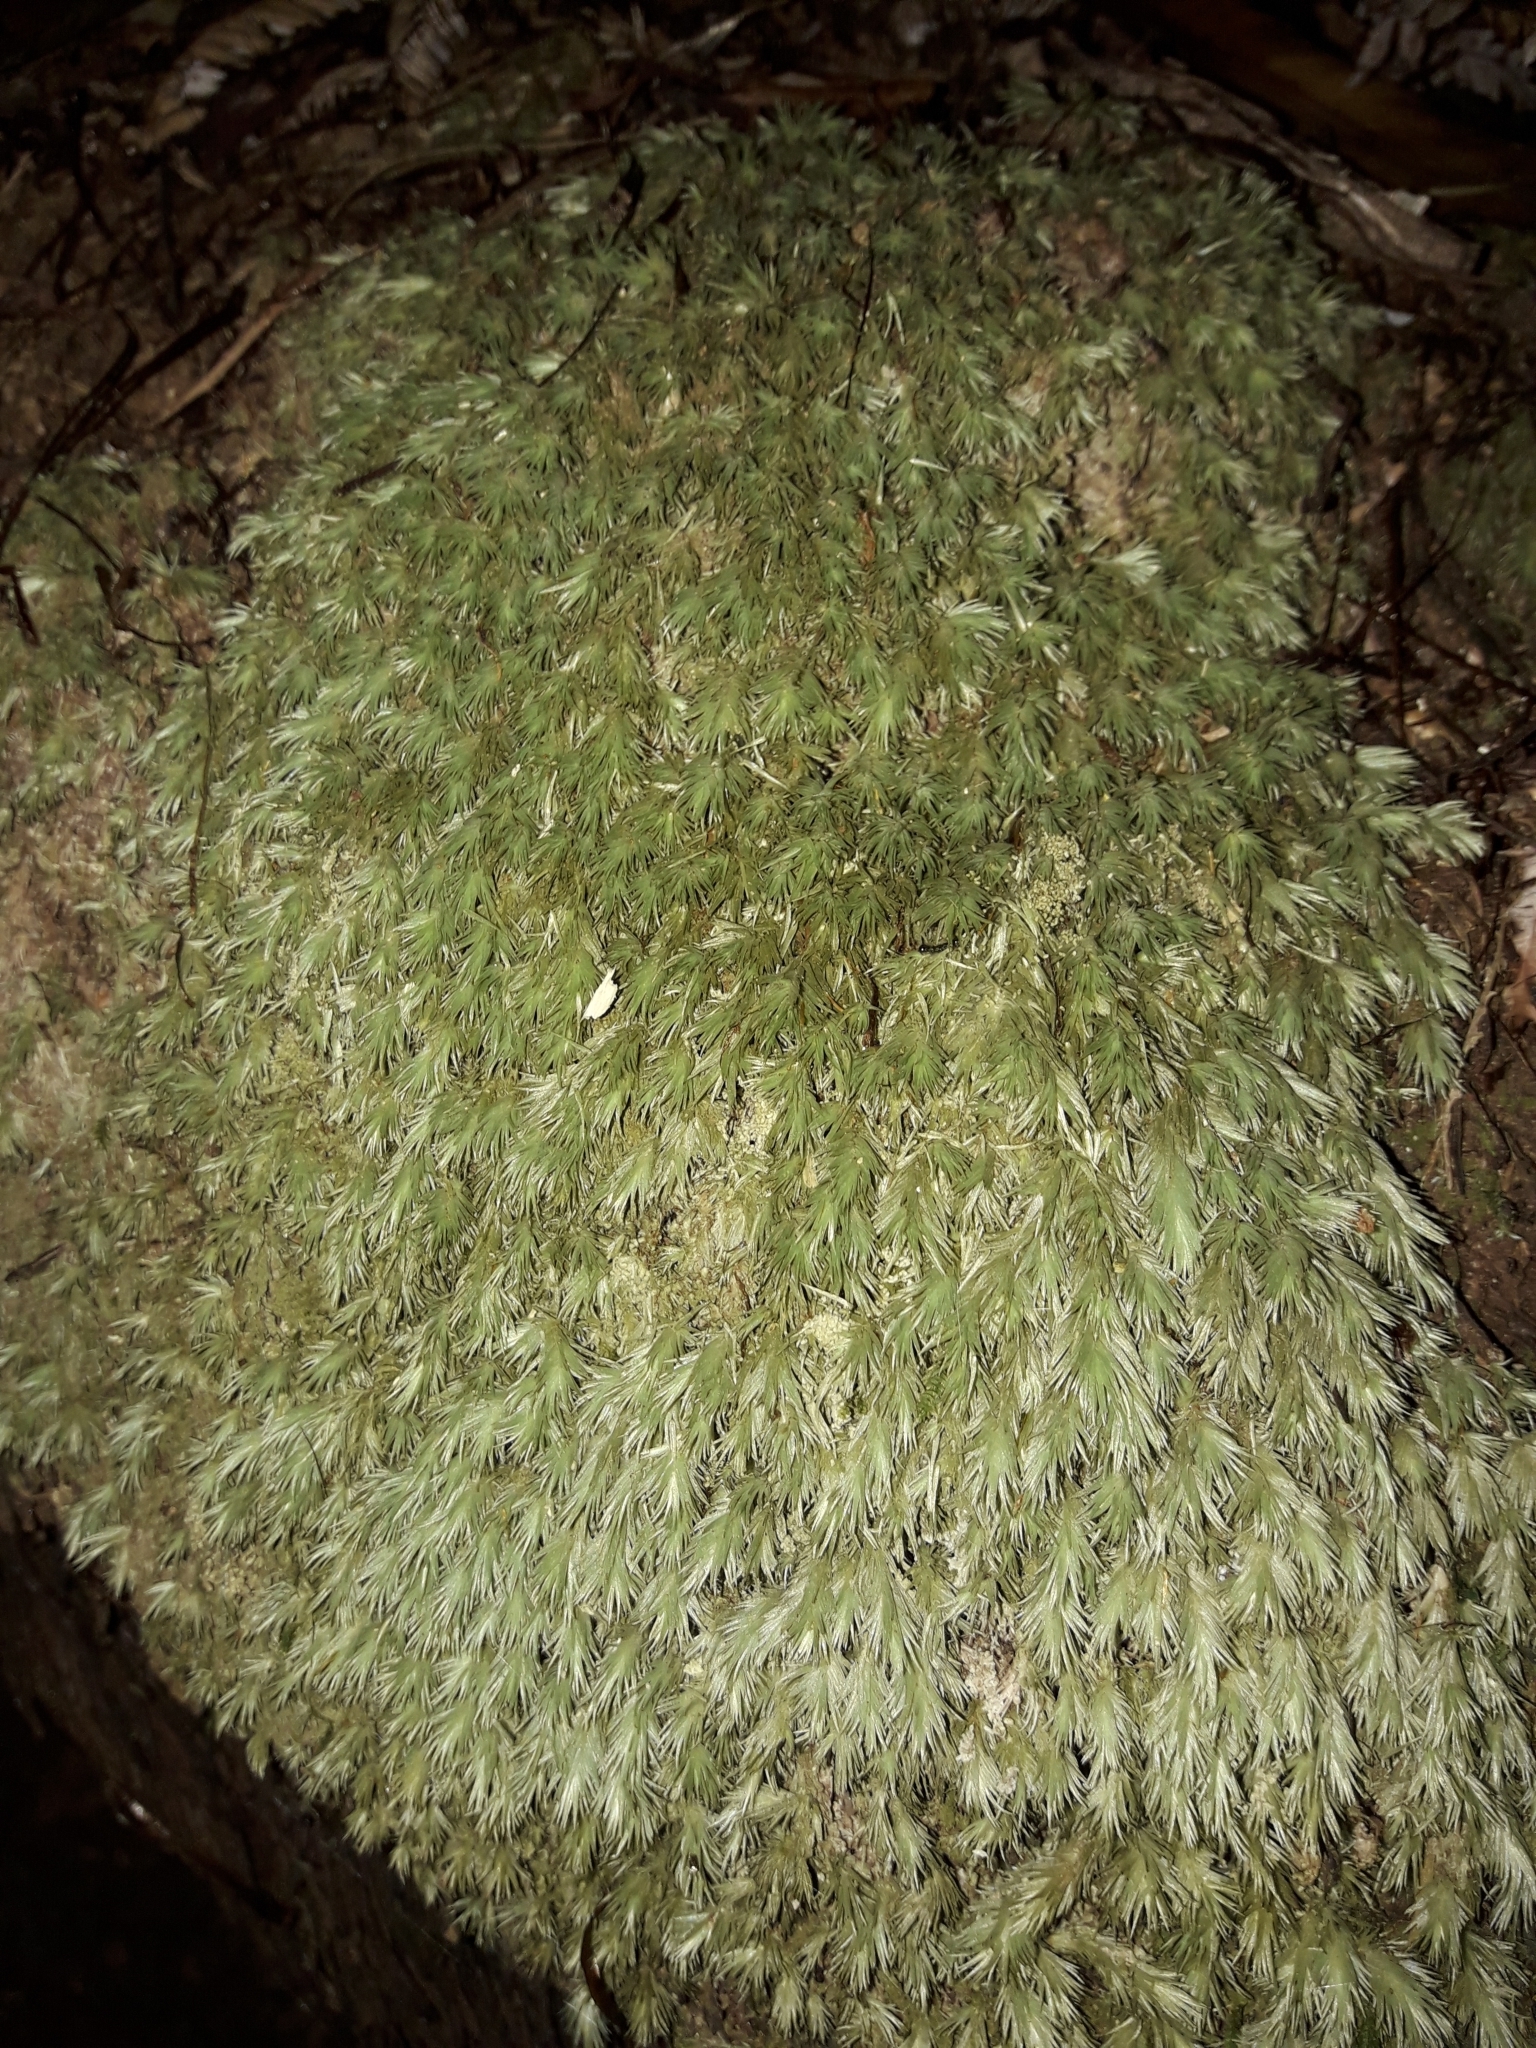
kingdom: Plantae
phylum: Bryophyta
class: Bryopsida
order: Dicranales
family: Leucobryaceae
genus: Leucobryum
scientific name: Leucobryum javense
